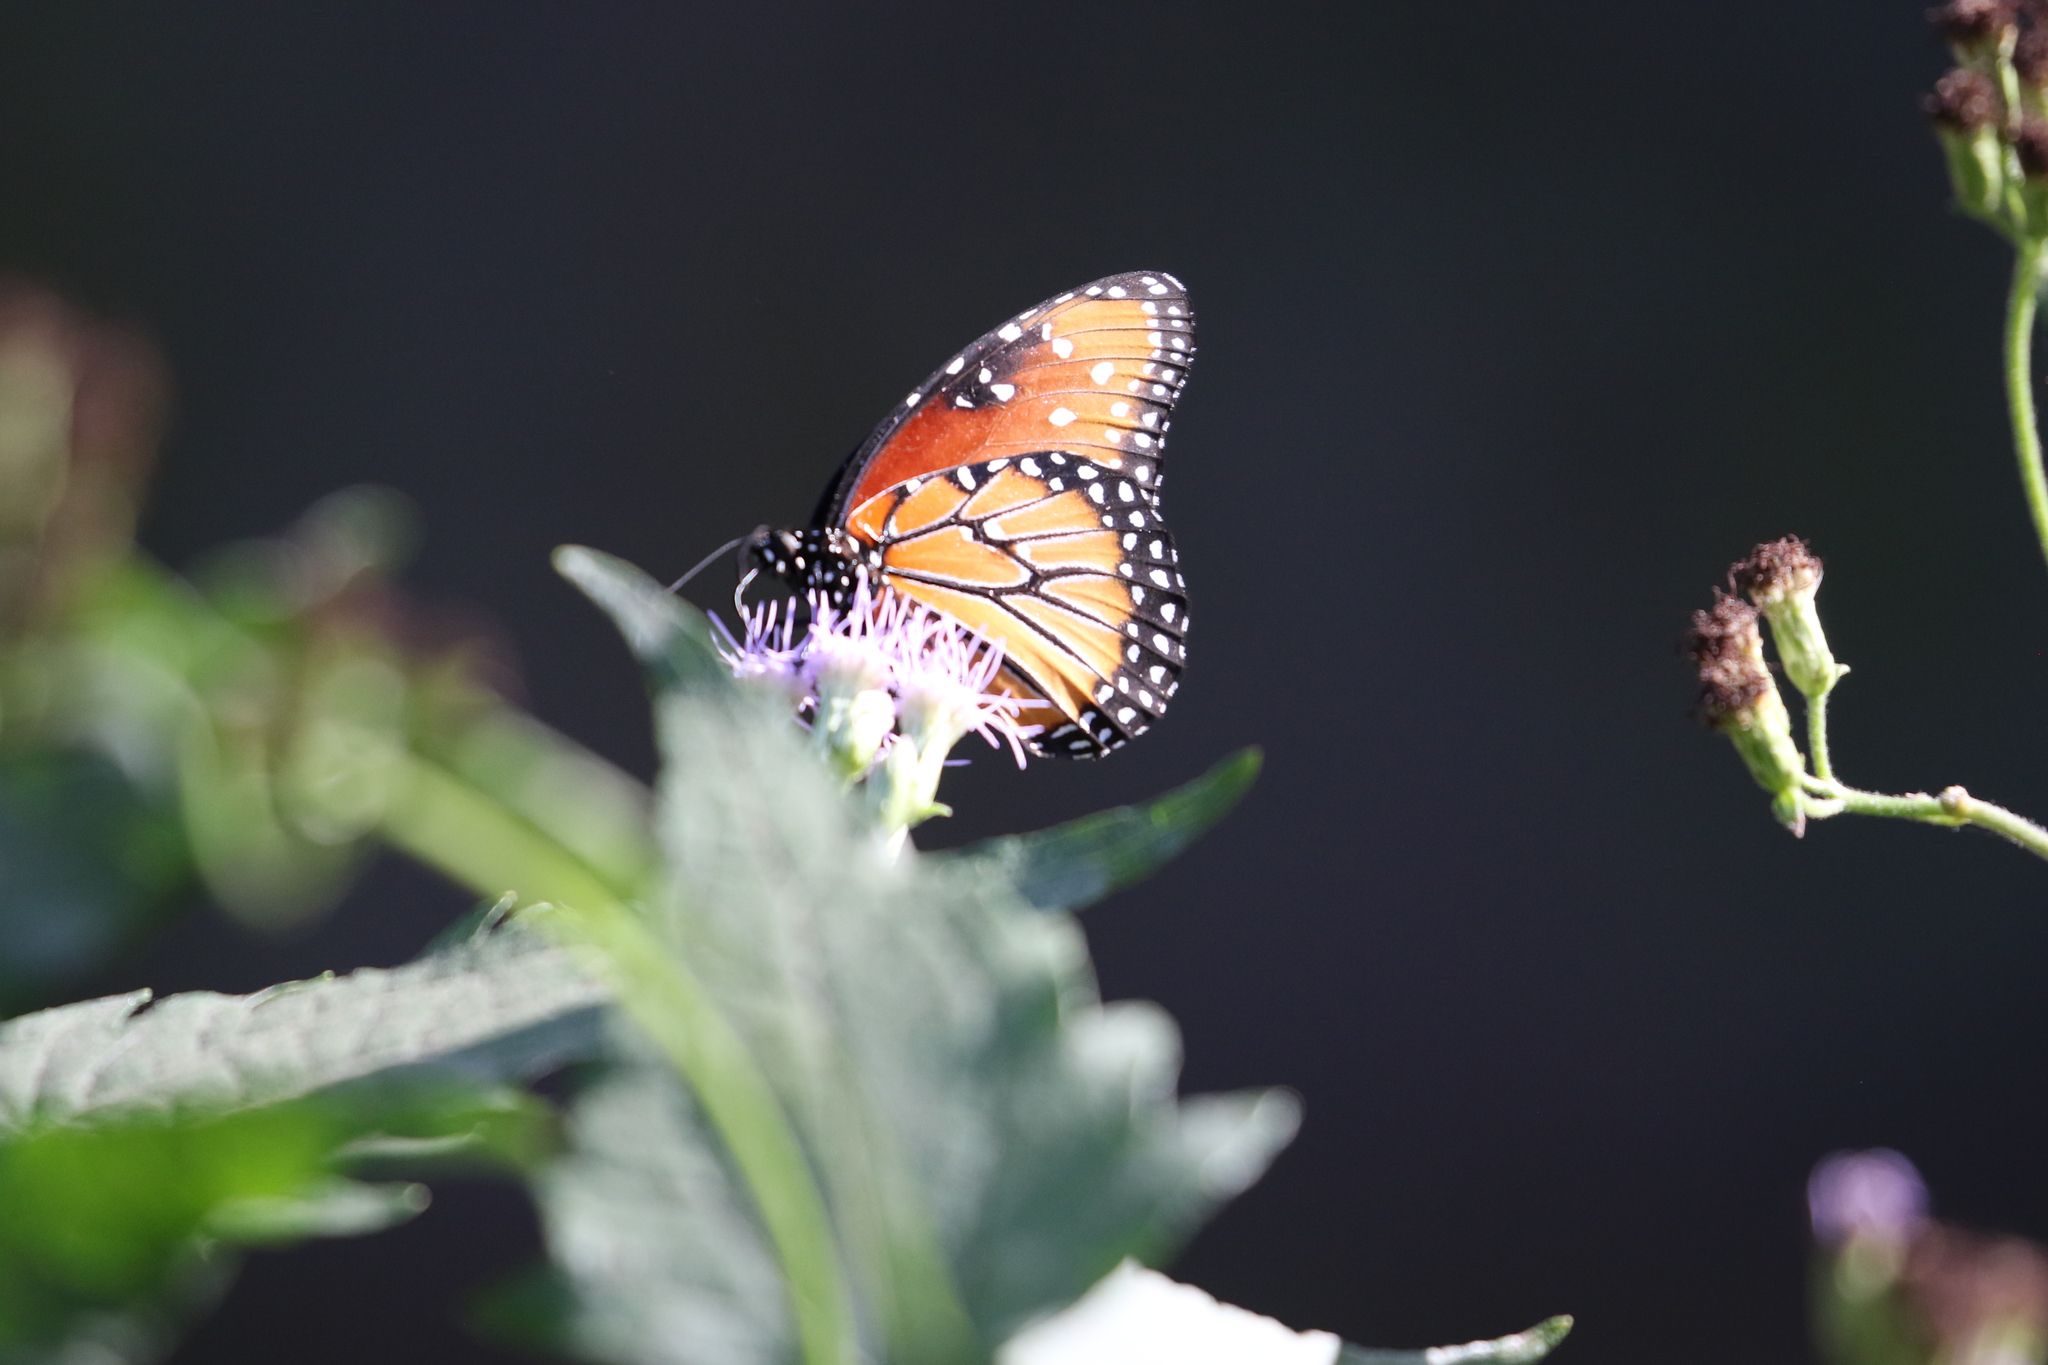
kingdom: Animalia
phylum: Arthropoda
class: Insecta
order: Lepidoptera
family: Nymphalidae
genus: Danaus
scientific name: Danaus gilippus
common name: Queen
